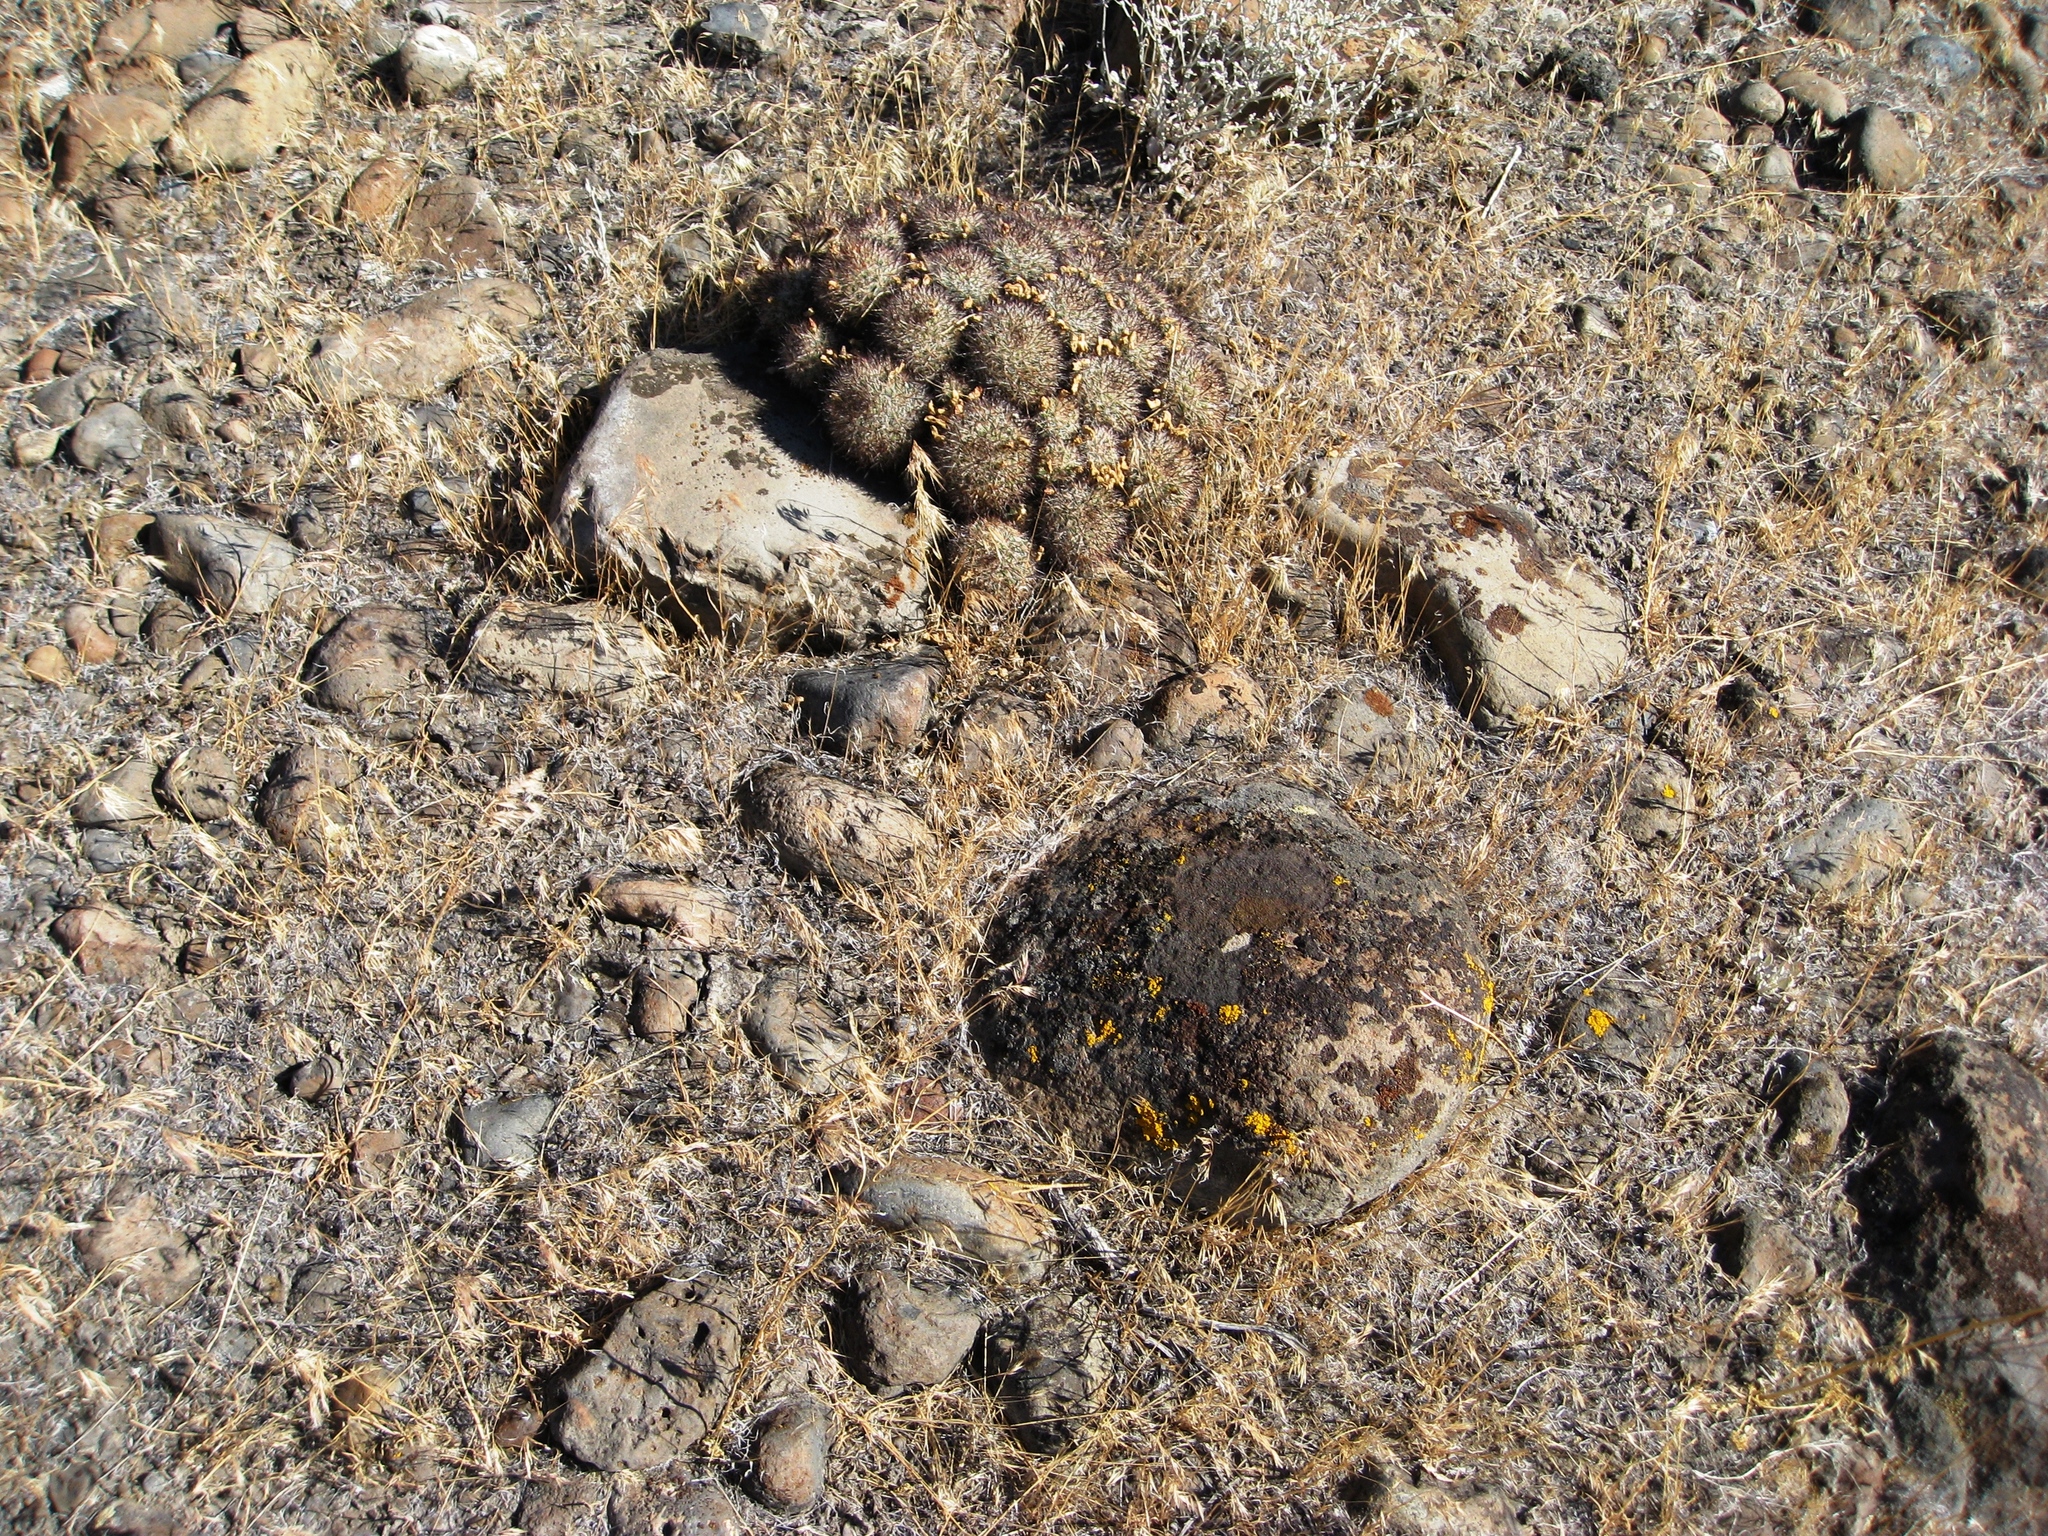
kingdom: Plantae
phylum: Tracheophyta
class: Magnoliopsida
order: Caryophyllales
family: Cactaceae
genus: Pediocactus
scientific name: Pediocactus nigrispinus
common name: Simpson's hedgehog cactus
